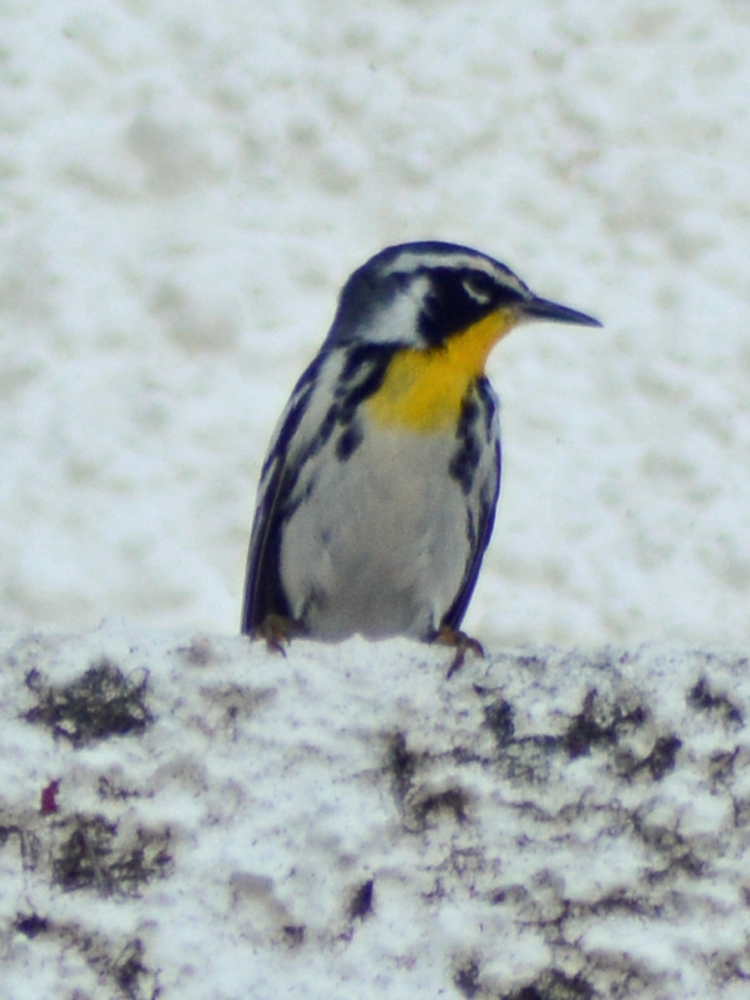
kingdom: Animalia
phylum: Chordata
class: Aves
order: Passeriformes
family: Parulidae
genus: Setophaga
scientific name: Setophaga dominica
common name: Yellow-throated warbler
